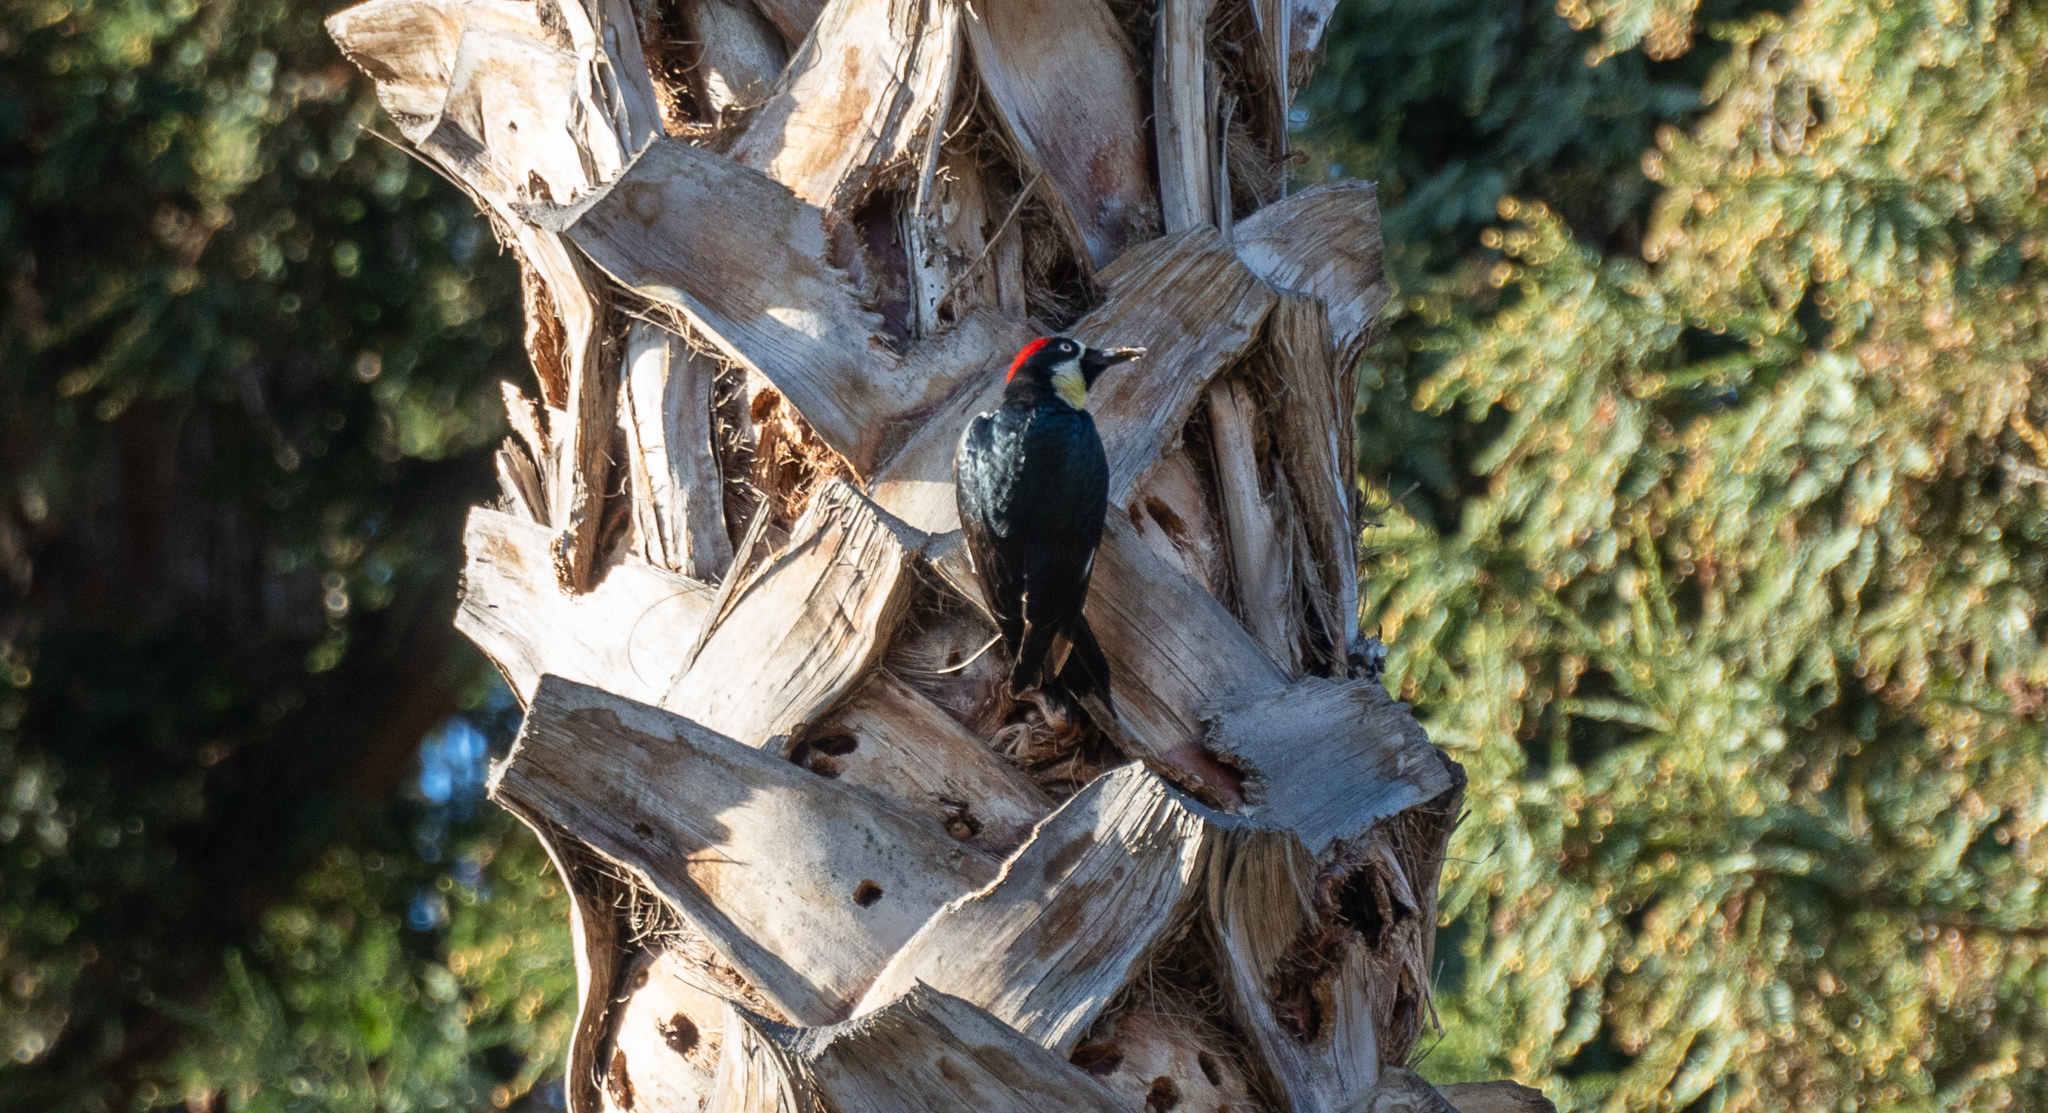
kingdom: Animalia
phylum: Chordata
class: Aves
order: Piciformes
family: Picidae
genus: Melanerpes
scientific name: Melanerpes formicivorus
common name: Acorn woodpecker
